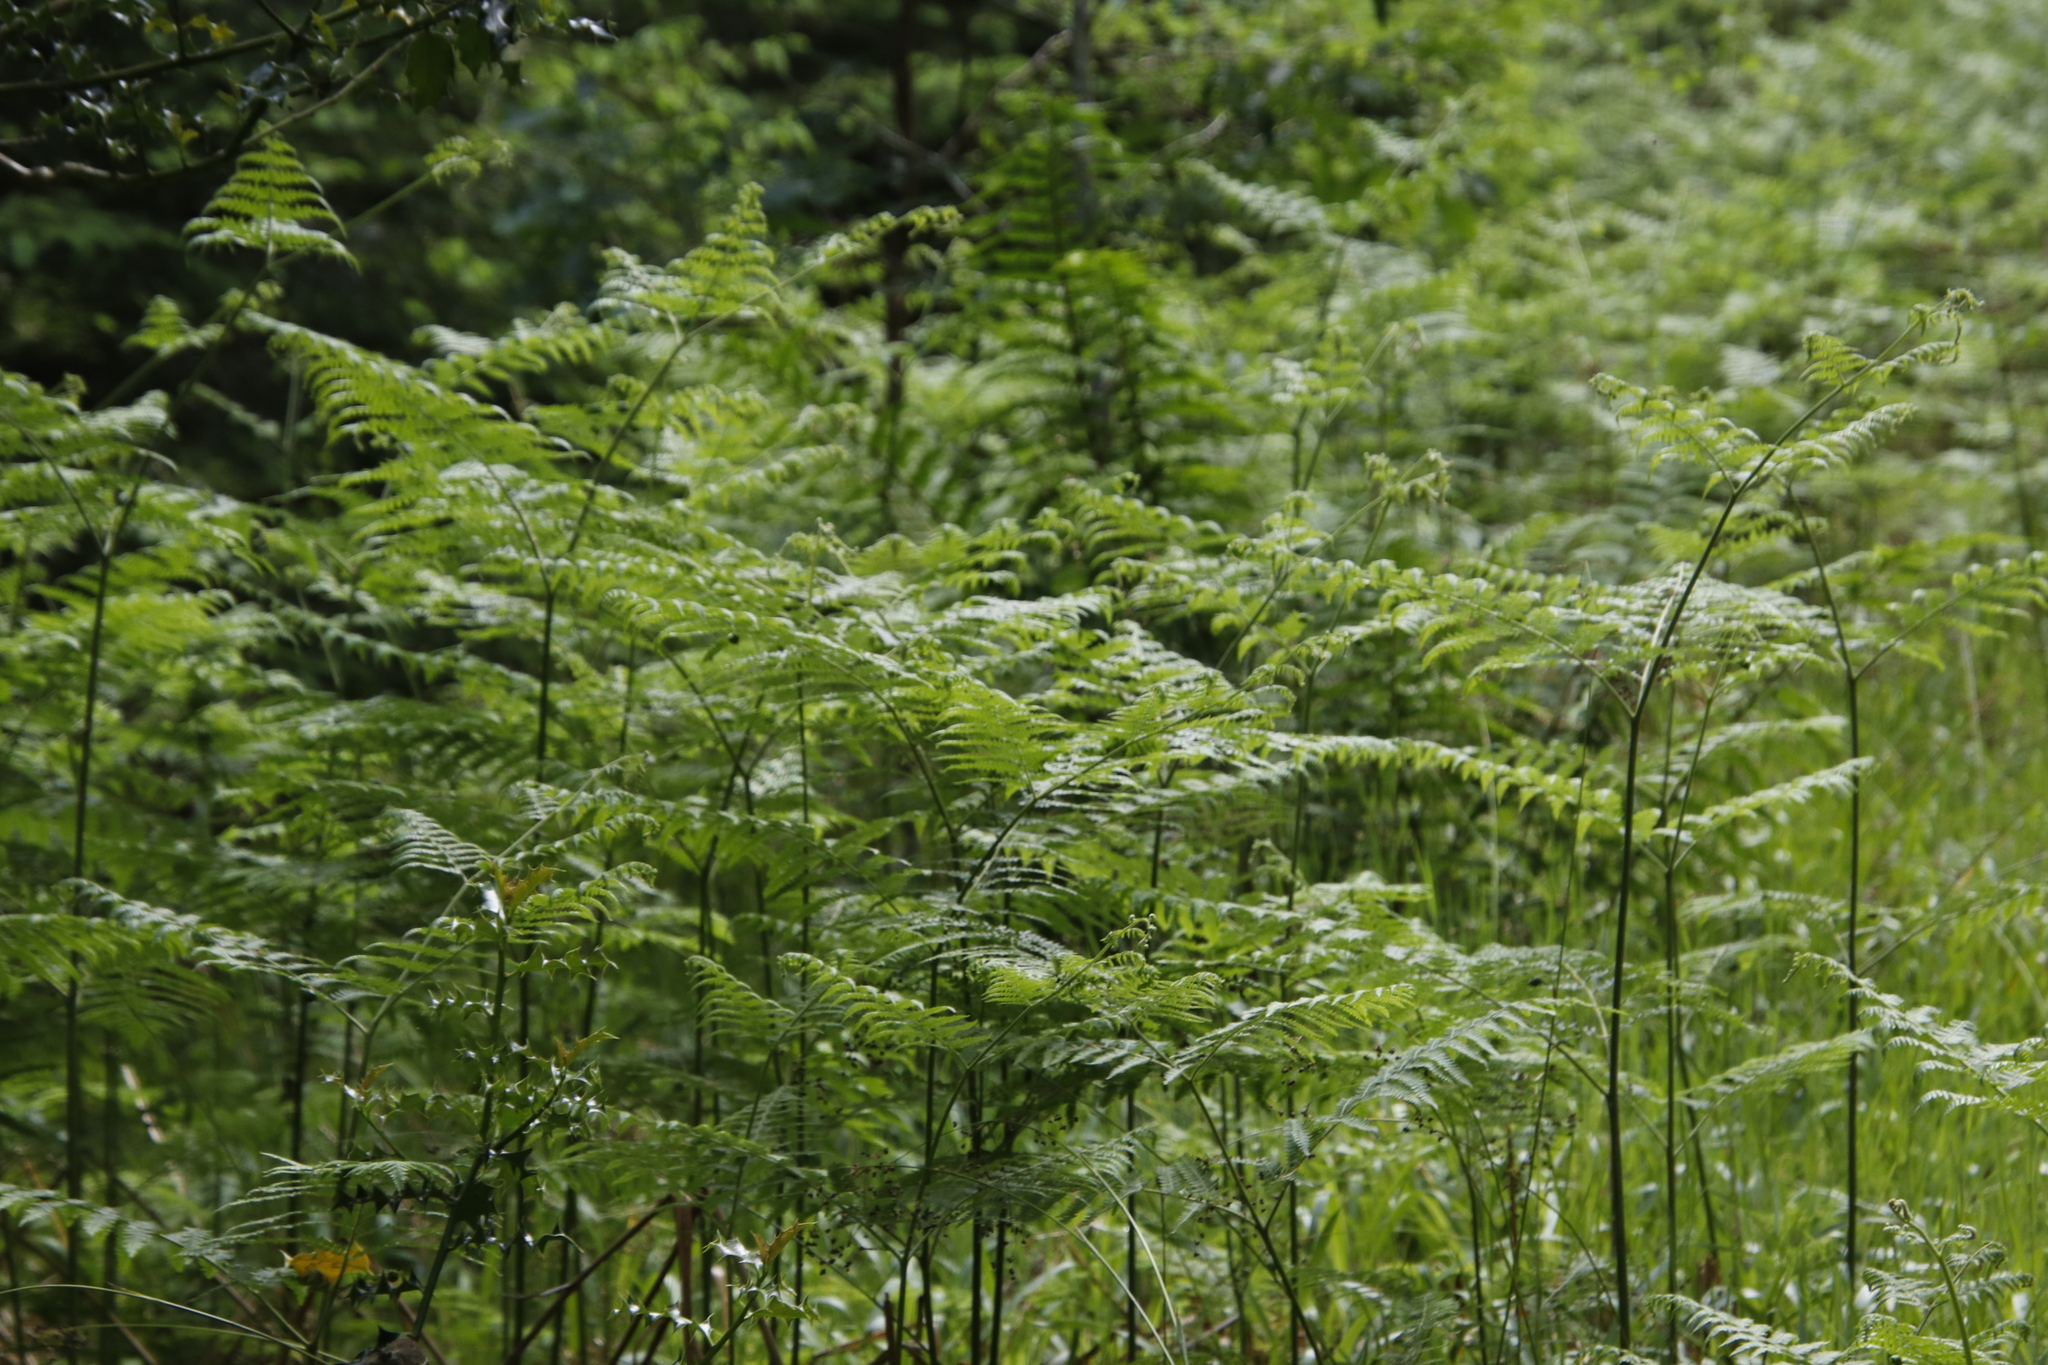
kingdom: Plantae
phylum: Tracheophyta
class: Polypodiopsida
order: Polypodiales
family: Dennstaedtiaceae
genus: Pteridium
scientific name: Pteridium aquilinum
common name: Bracken
